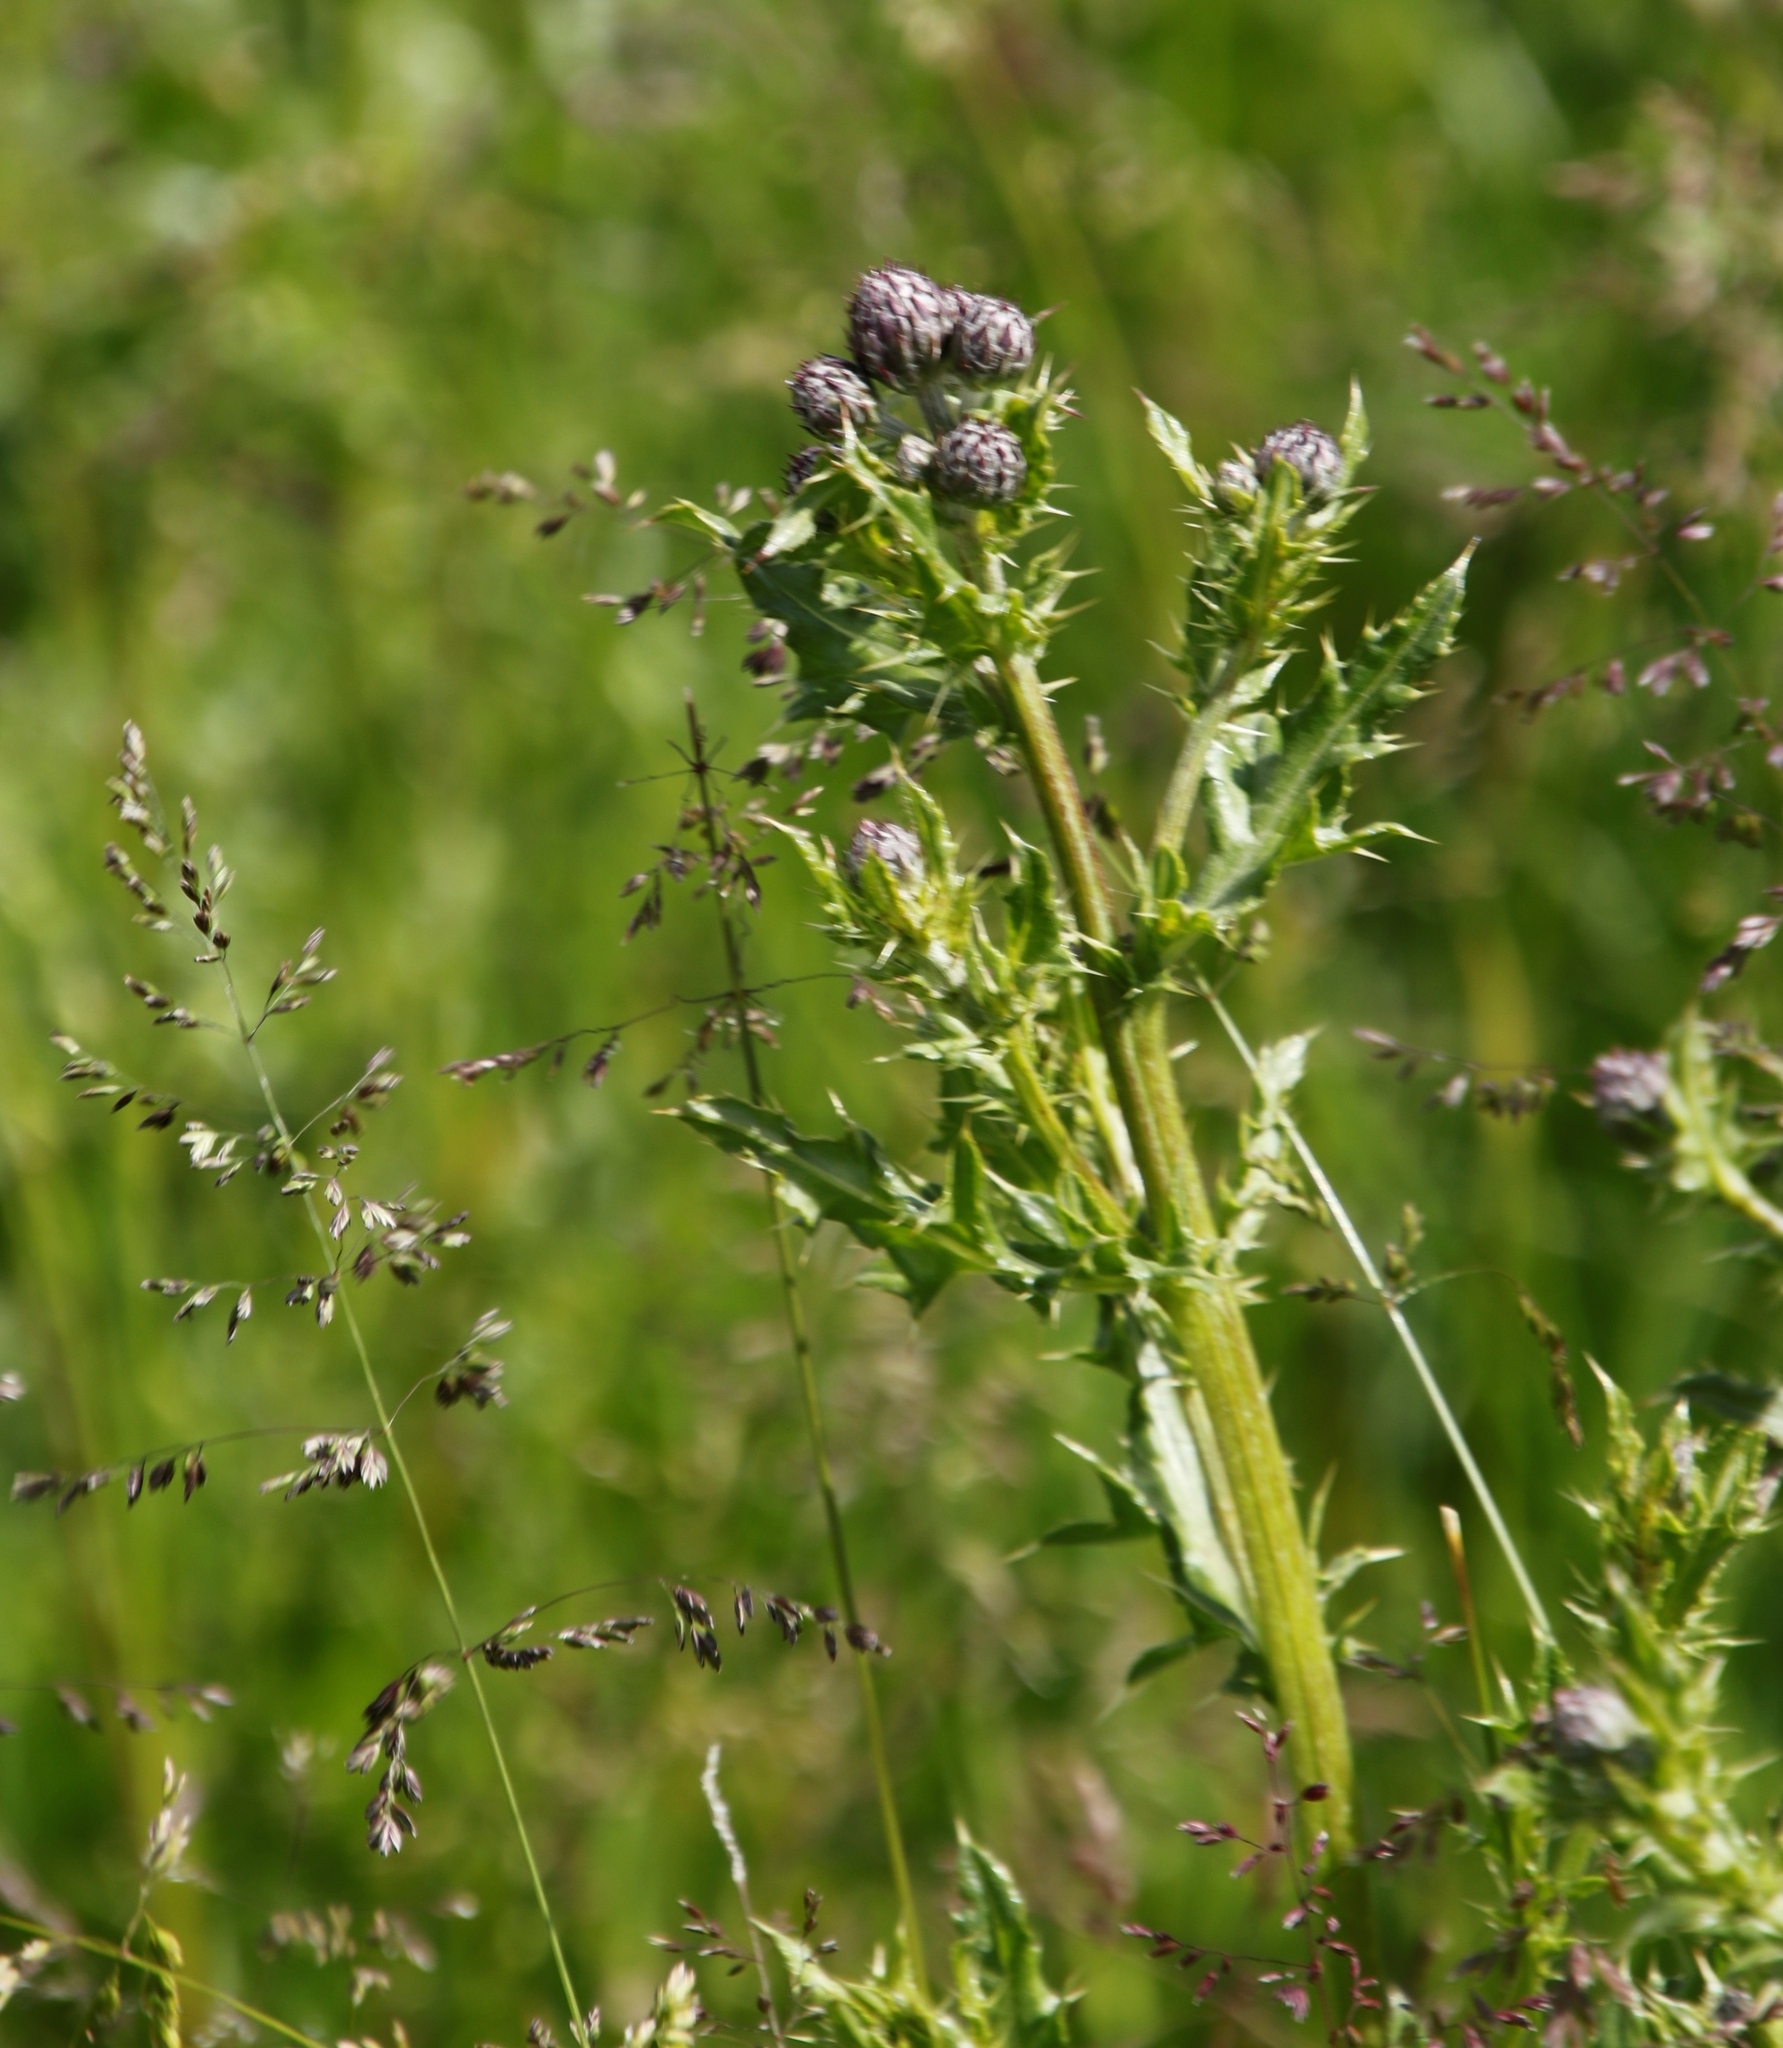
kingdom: Plantae
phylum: Tracheophyta
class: Magnoliopsida
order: Asterales
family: Asteraceae
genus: Cirsium
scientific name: Cirsium arvense
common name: Creeping thistle
